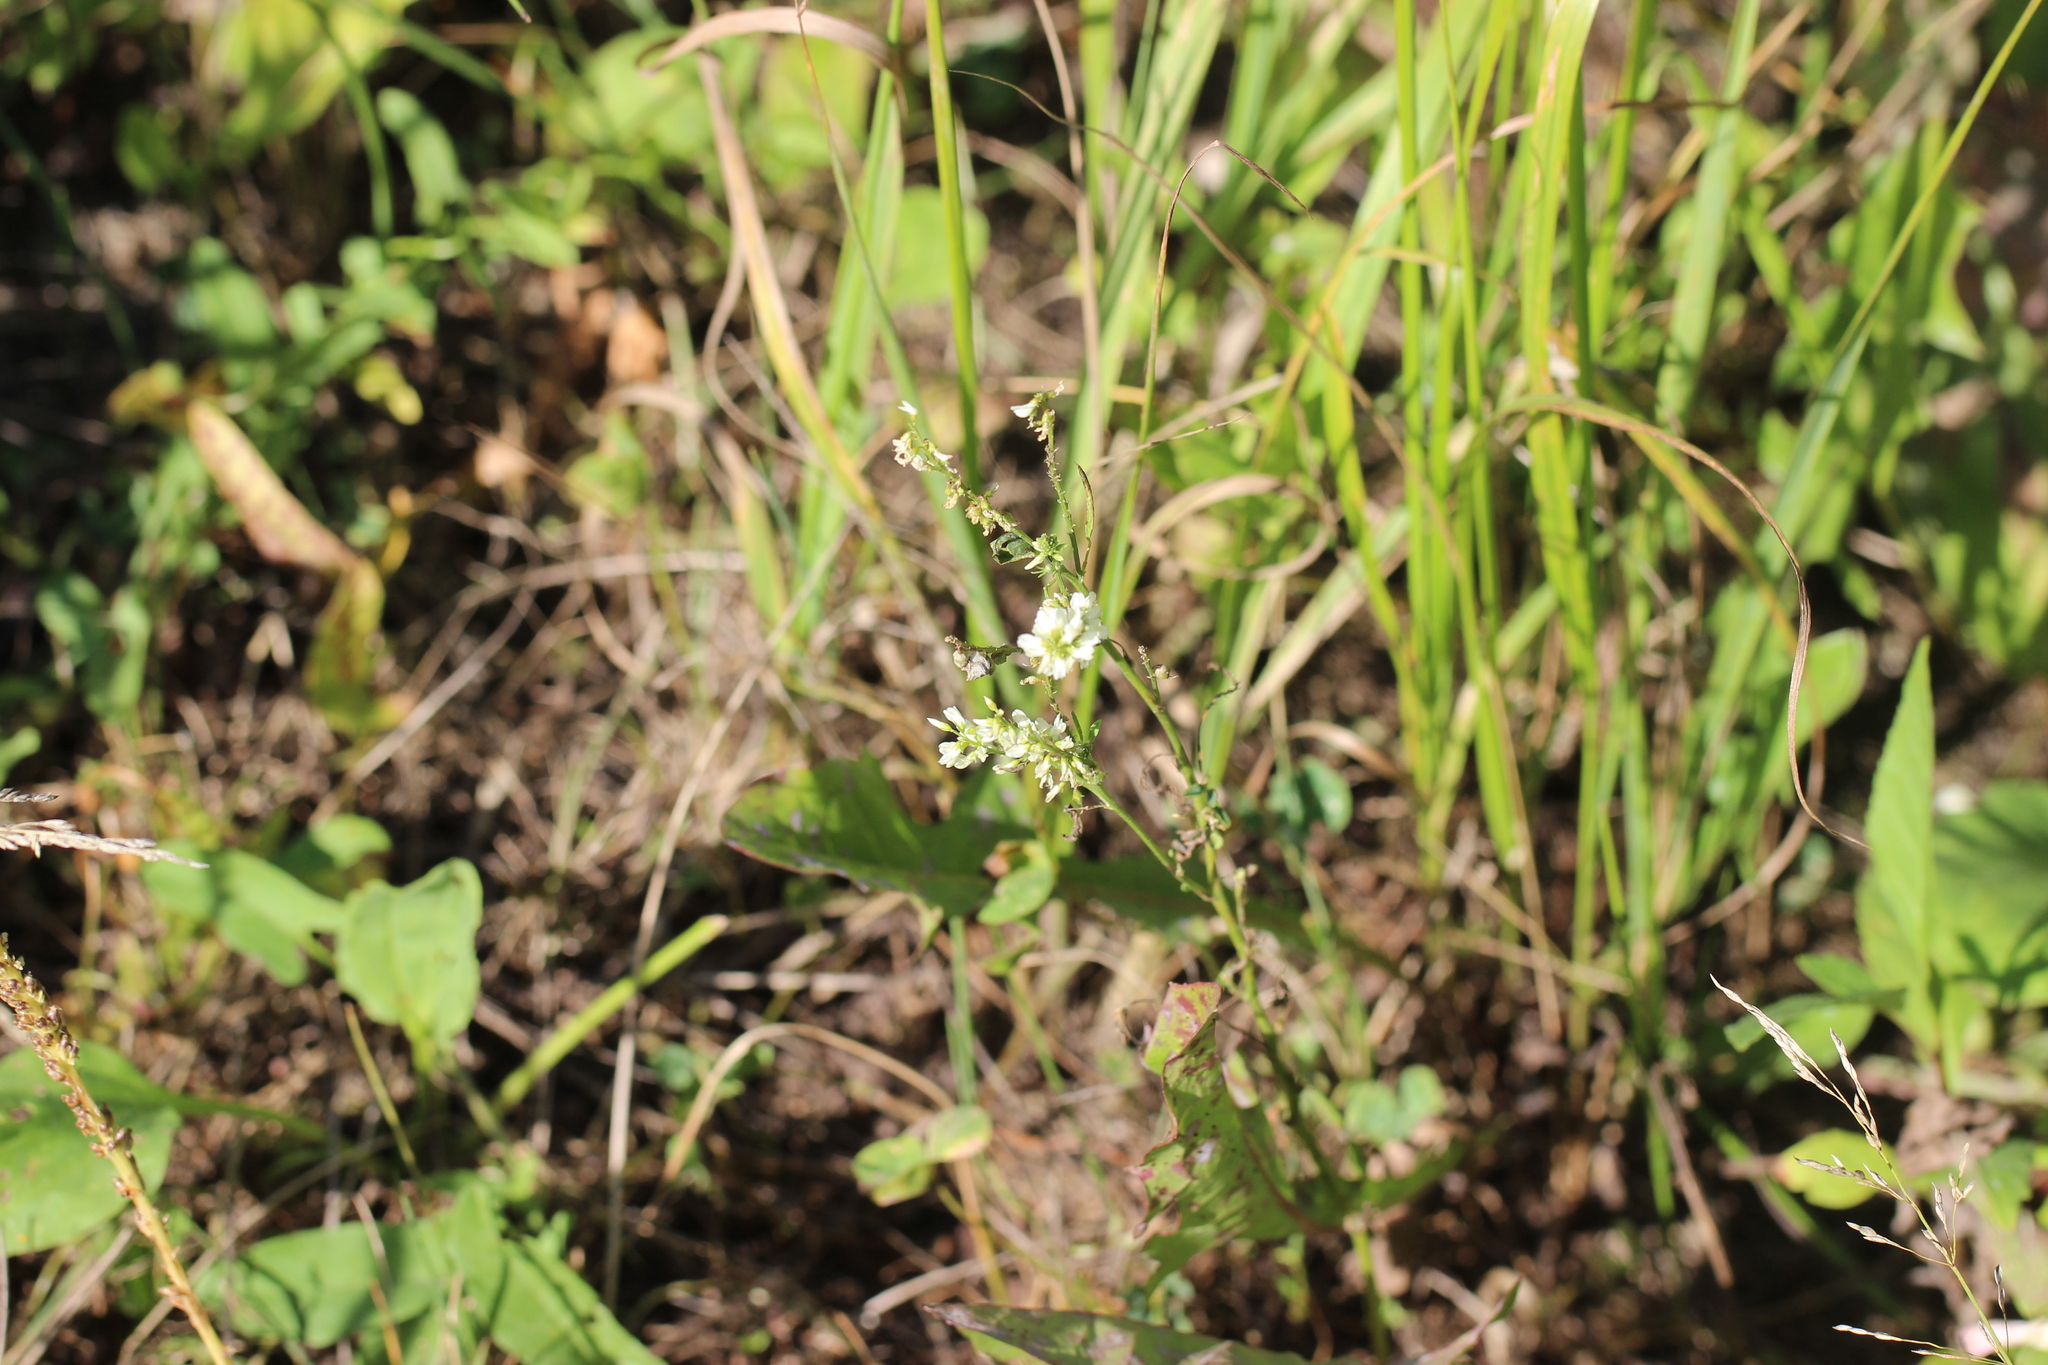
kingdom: Plantae
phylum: Tracheophyta
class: Magnoliopsida
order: Fabales
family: Fabaceae
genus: Melilotus
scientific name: Melilotus albus
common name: White melilot
